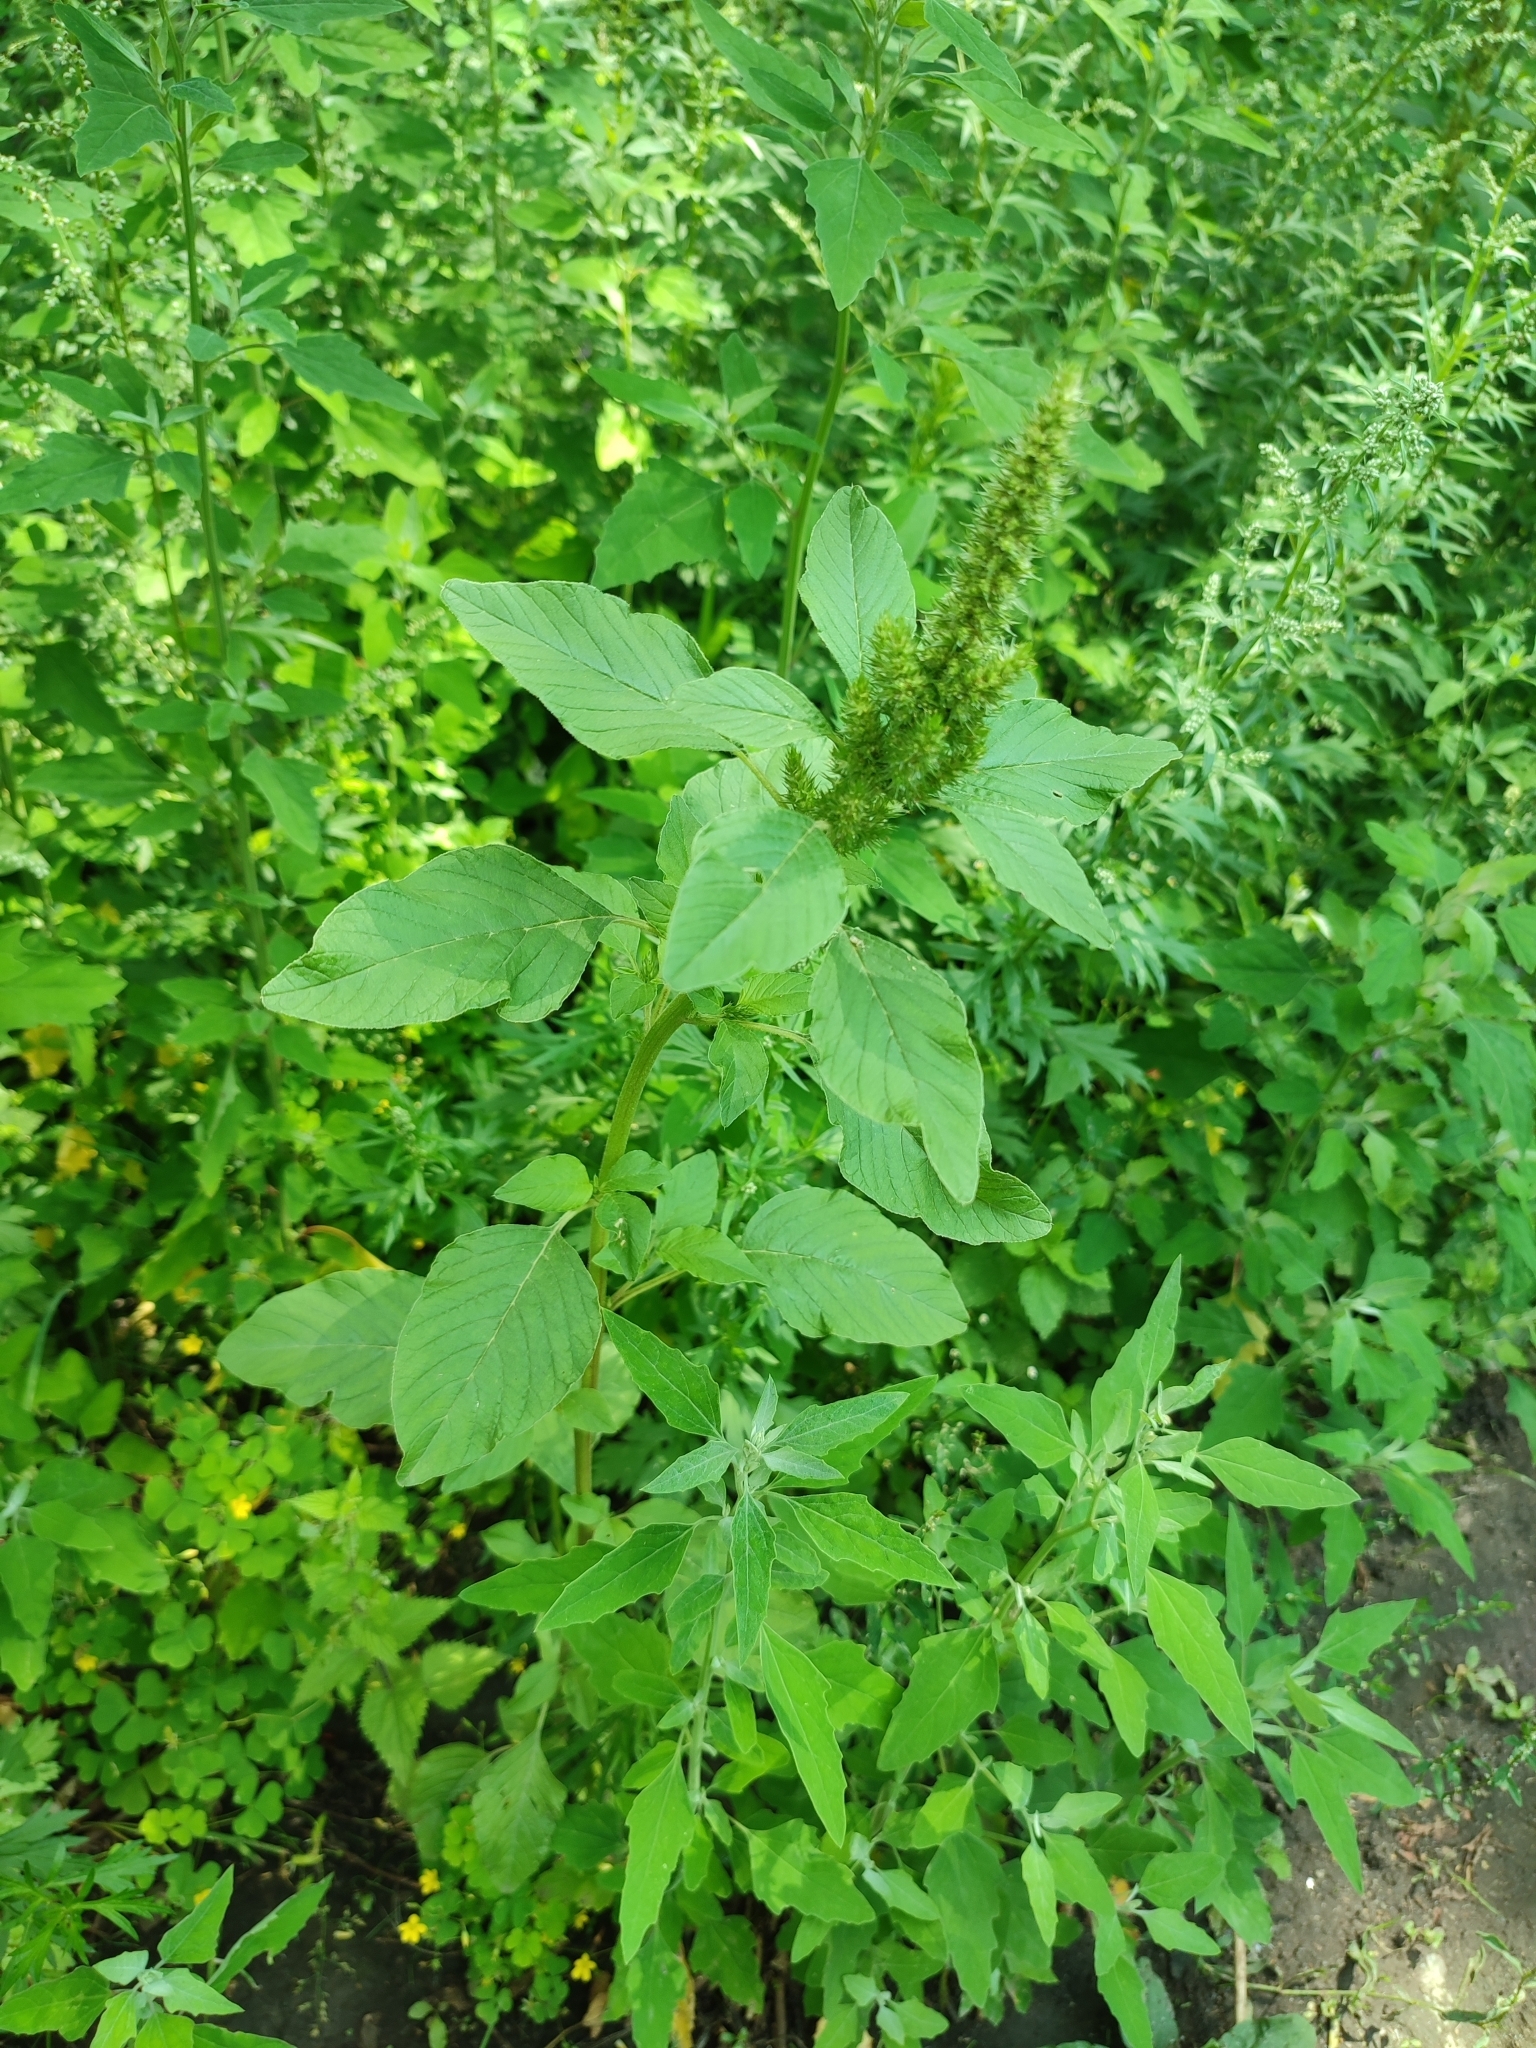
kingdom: Plantae
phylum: Tracheophyta
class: Magnoliopsida
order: Caryophyllales
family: Amaranthaceae
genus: Amaranthus
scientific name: Amaranthus retroflexus
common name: Redroot amaranth
